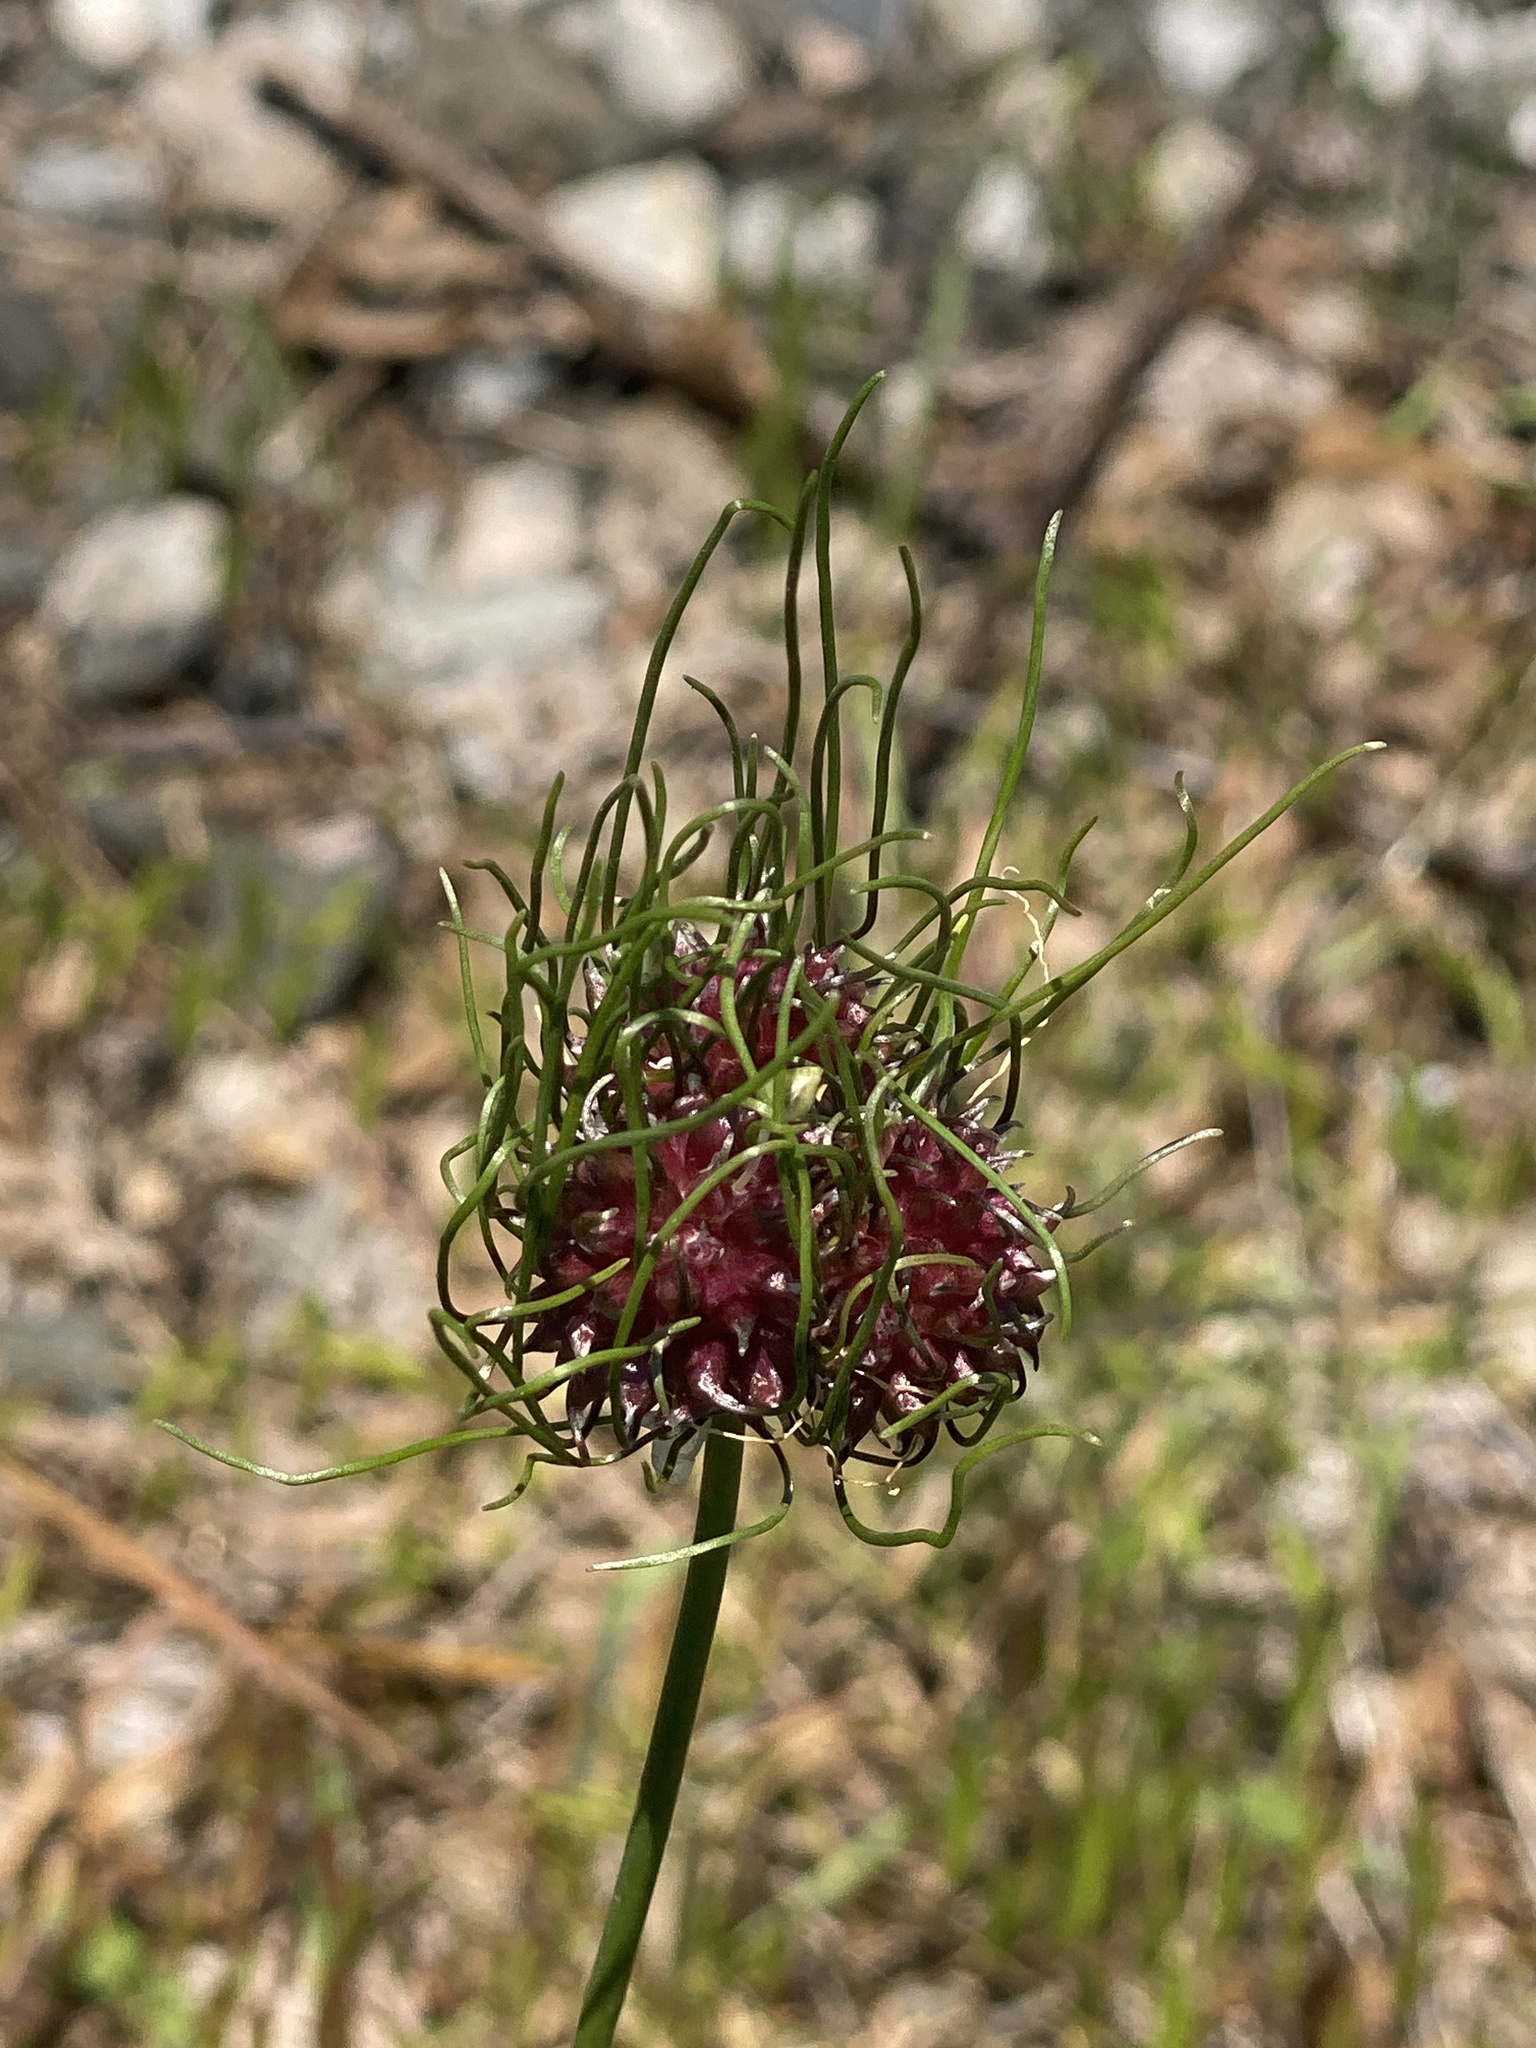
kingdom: Plantae
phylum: Tracheophyta
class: Liliopsida
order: Asparagales
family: Amaryllidaceae
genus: Allium
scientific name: Allium vineale
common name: Crow garlic
